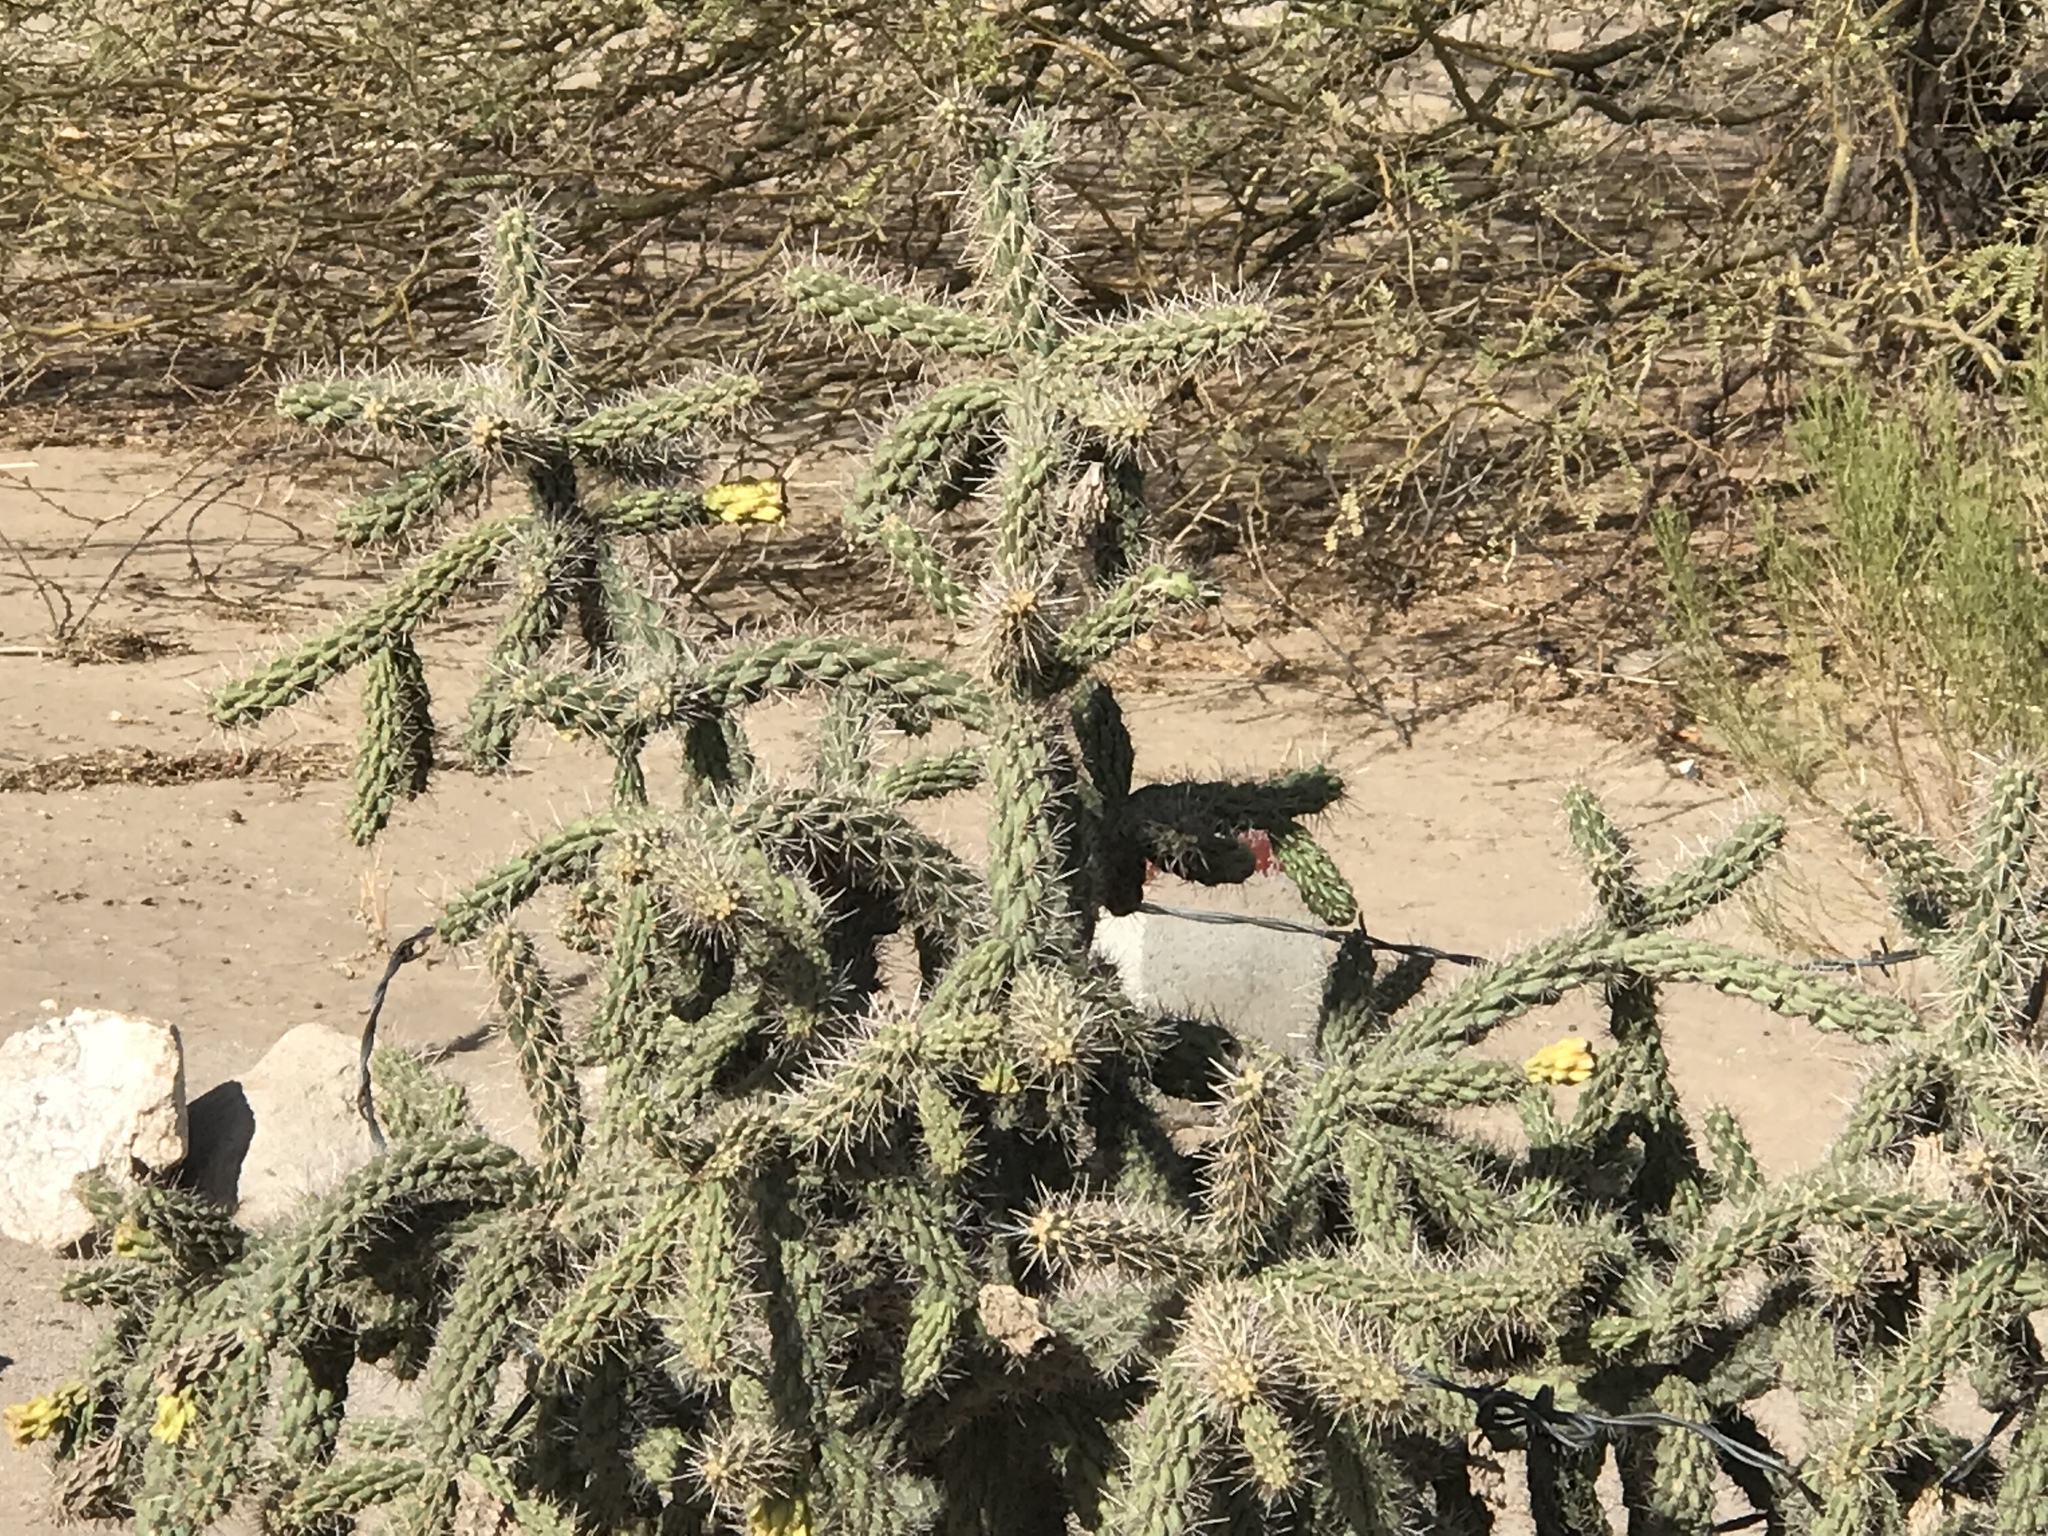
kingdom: Plantae
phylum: Tracheophyta
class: Magnoliopsida
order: Caryophyllales
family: Cactaceae
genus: Cylindropuntia
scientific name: Cylindropuntia imbricata
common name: Candelabrum cactus
